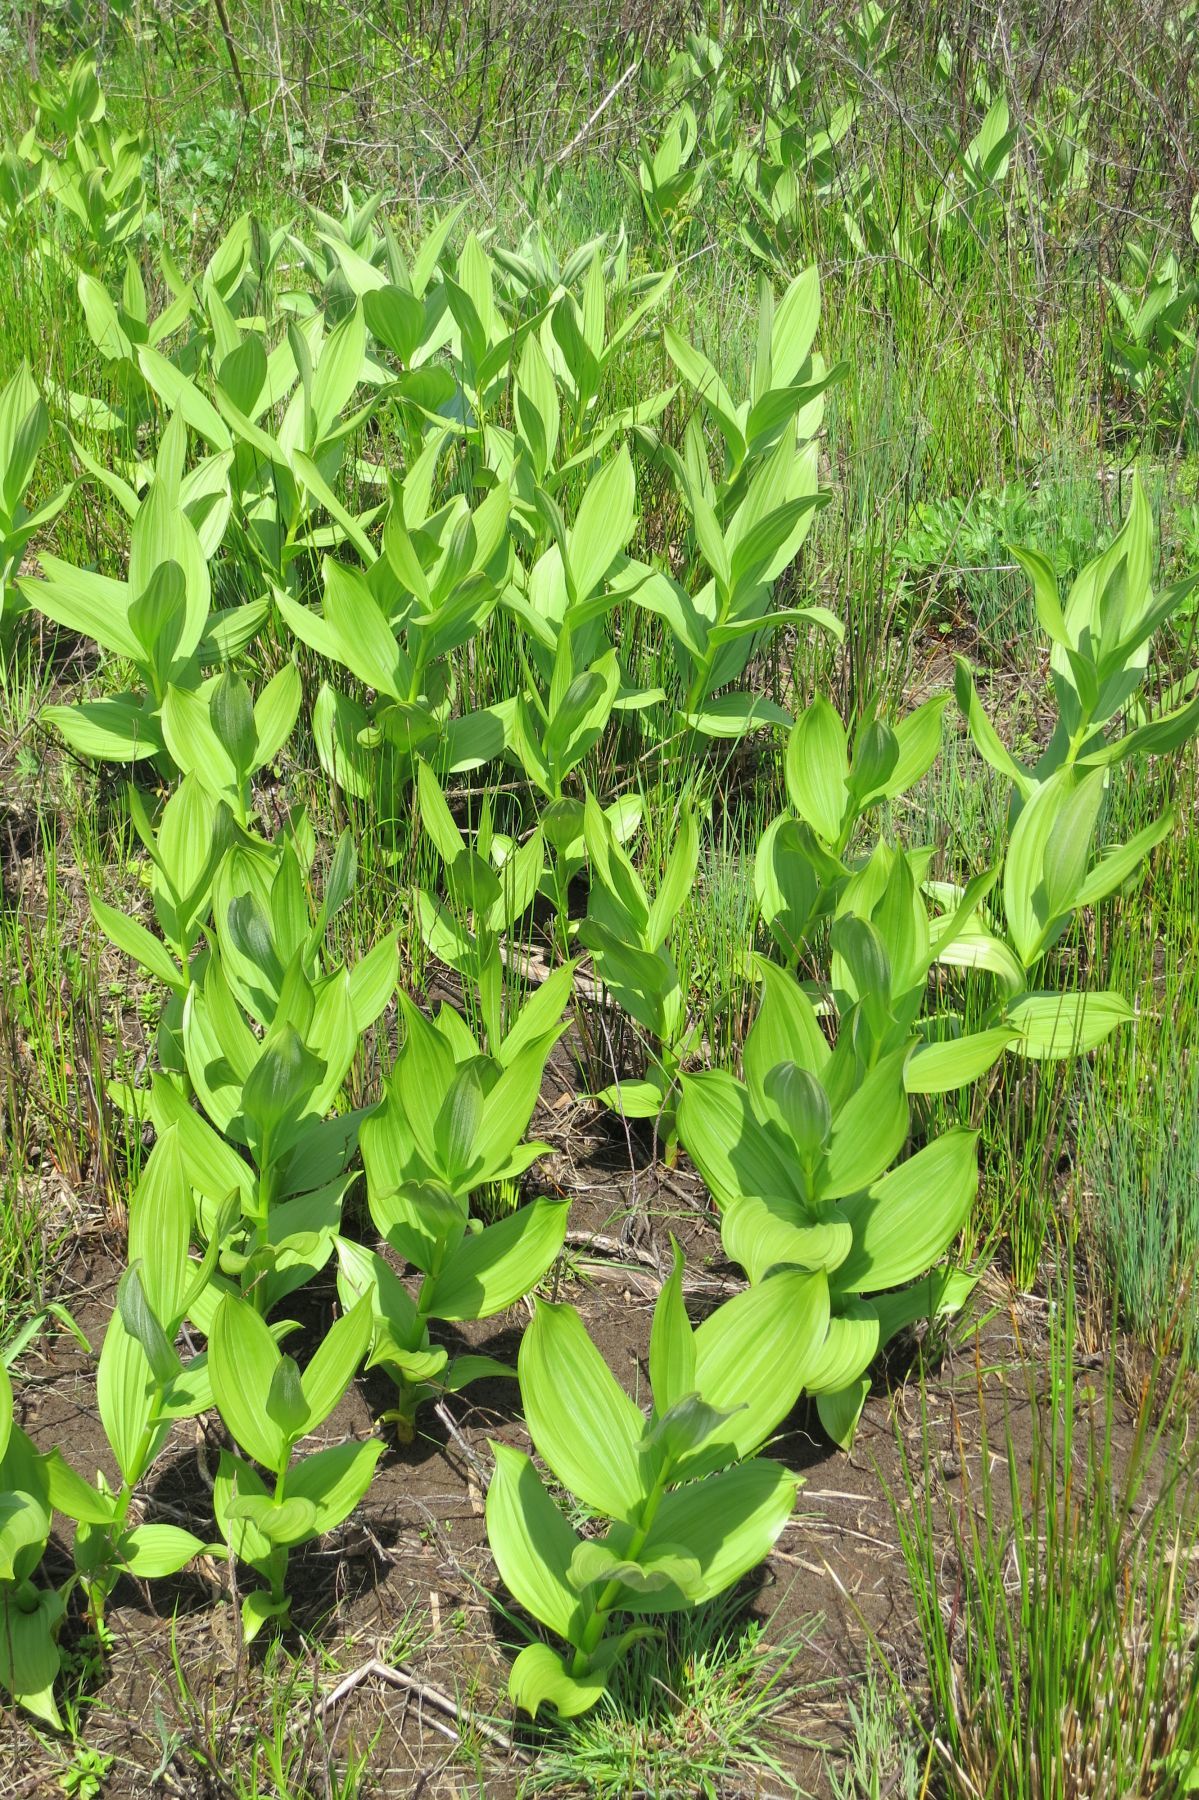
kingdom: Plantae
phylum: Tracheophyta
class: Liliopsida
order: Liliales
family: Melanthiaceae
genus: Veratrum
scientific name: Veratrum californicum
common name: California veratrum
